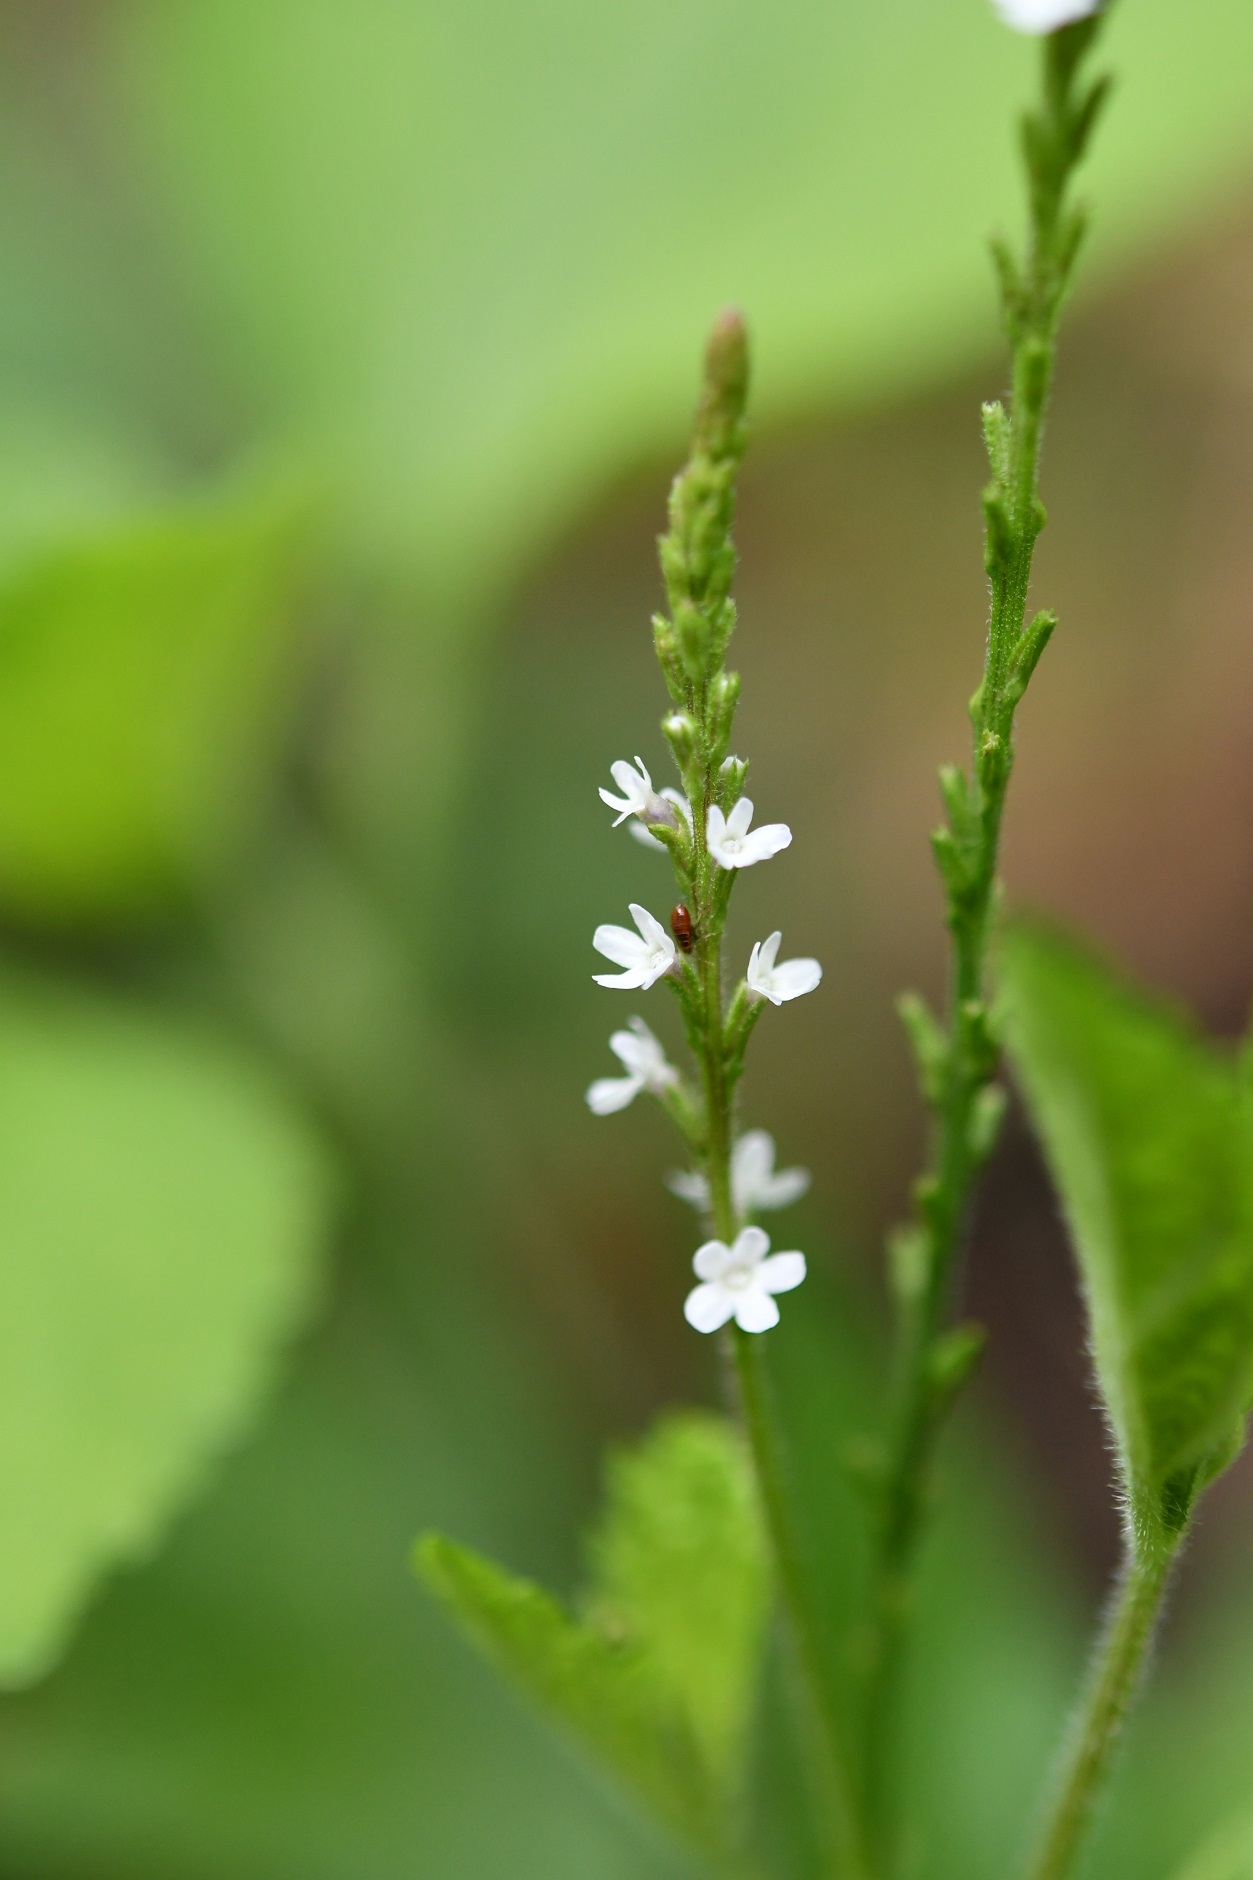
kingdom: Plantae
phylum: Tracheophyta
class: Magnoliopsida
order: Lamiales
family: Verbenaceae
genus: Verbena
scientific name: Verbena carolina
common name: Carolina vervain
